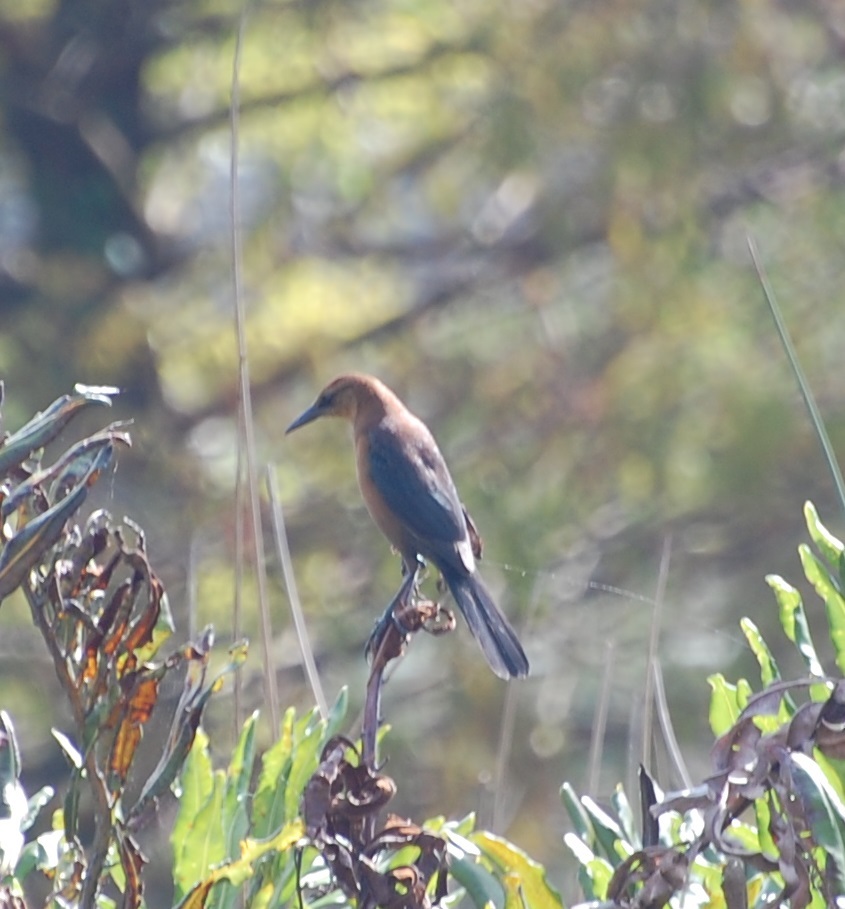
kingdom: Animalia
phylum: Chordata
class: Aves
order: Passeriformes
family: Icteridae
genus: Quiscalus
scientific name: Quiscalus major
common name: Boat-tailed grackle
